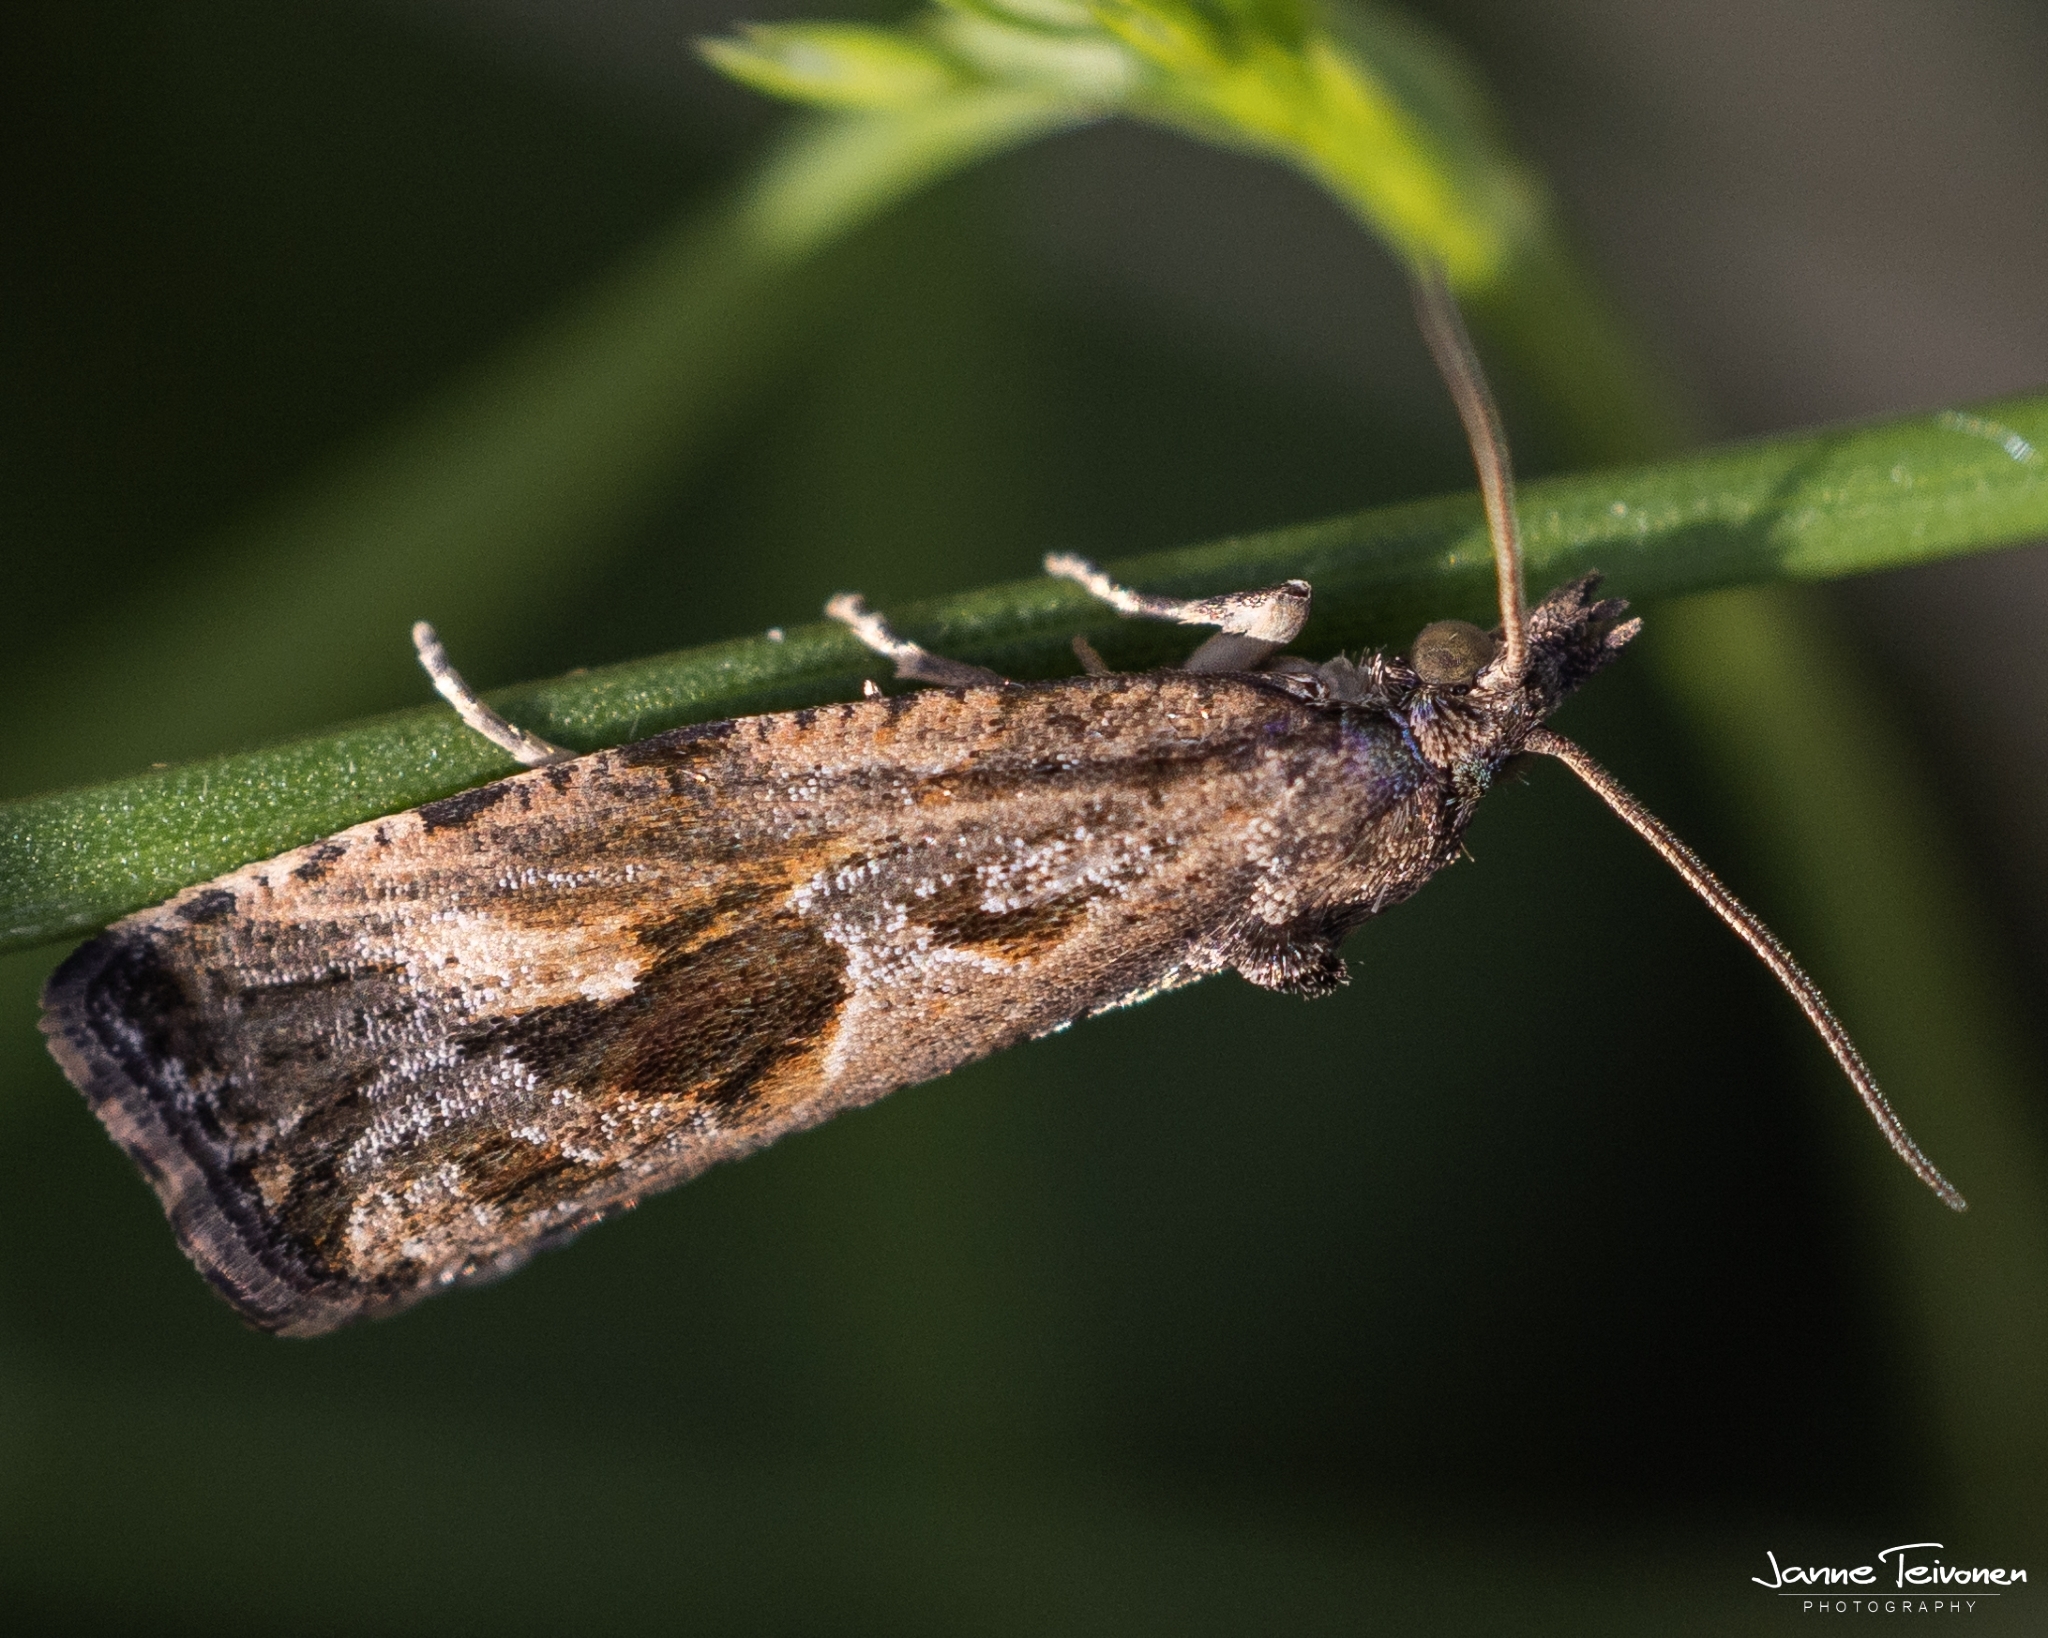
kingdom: Animalia
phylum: Arthropoda
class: Insecta
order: Lepidoptera
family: Tortricidae
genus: Endothenia
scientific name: Endothenia quadrimaculana
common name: Tortricid moth
